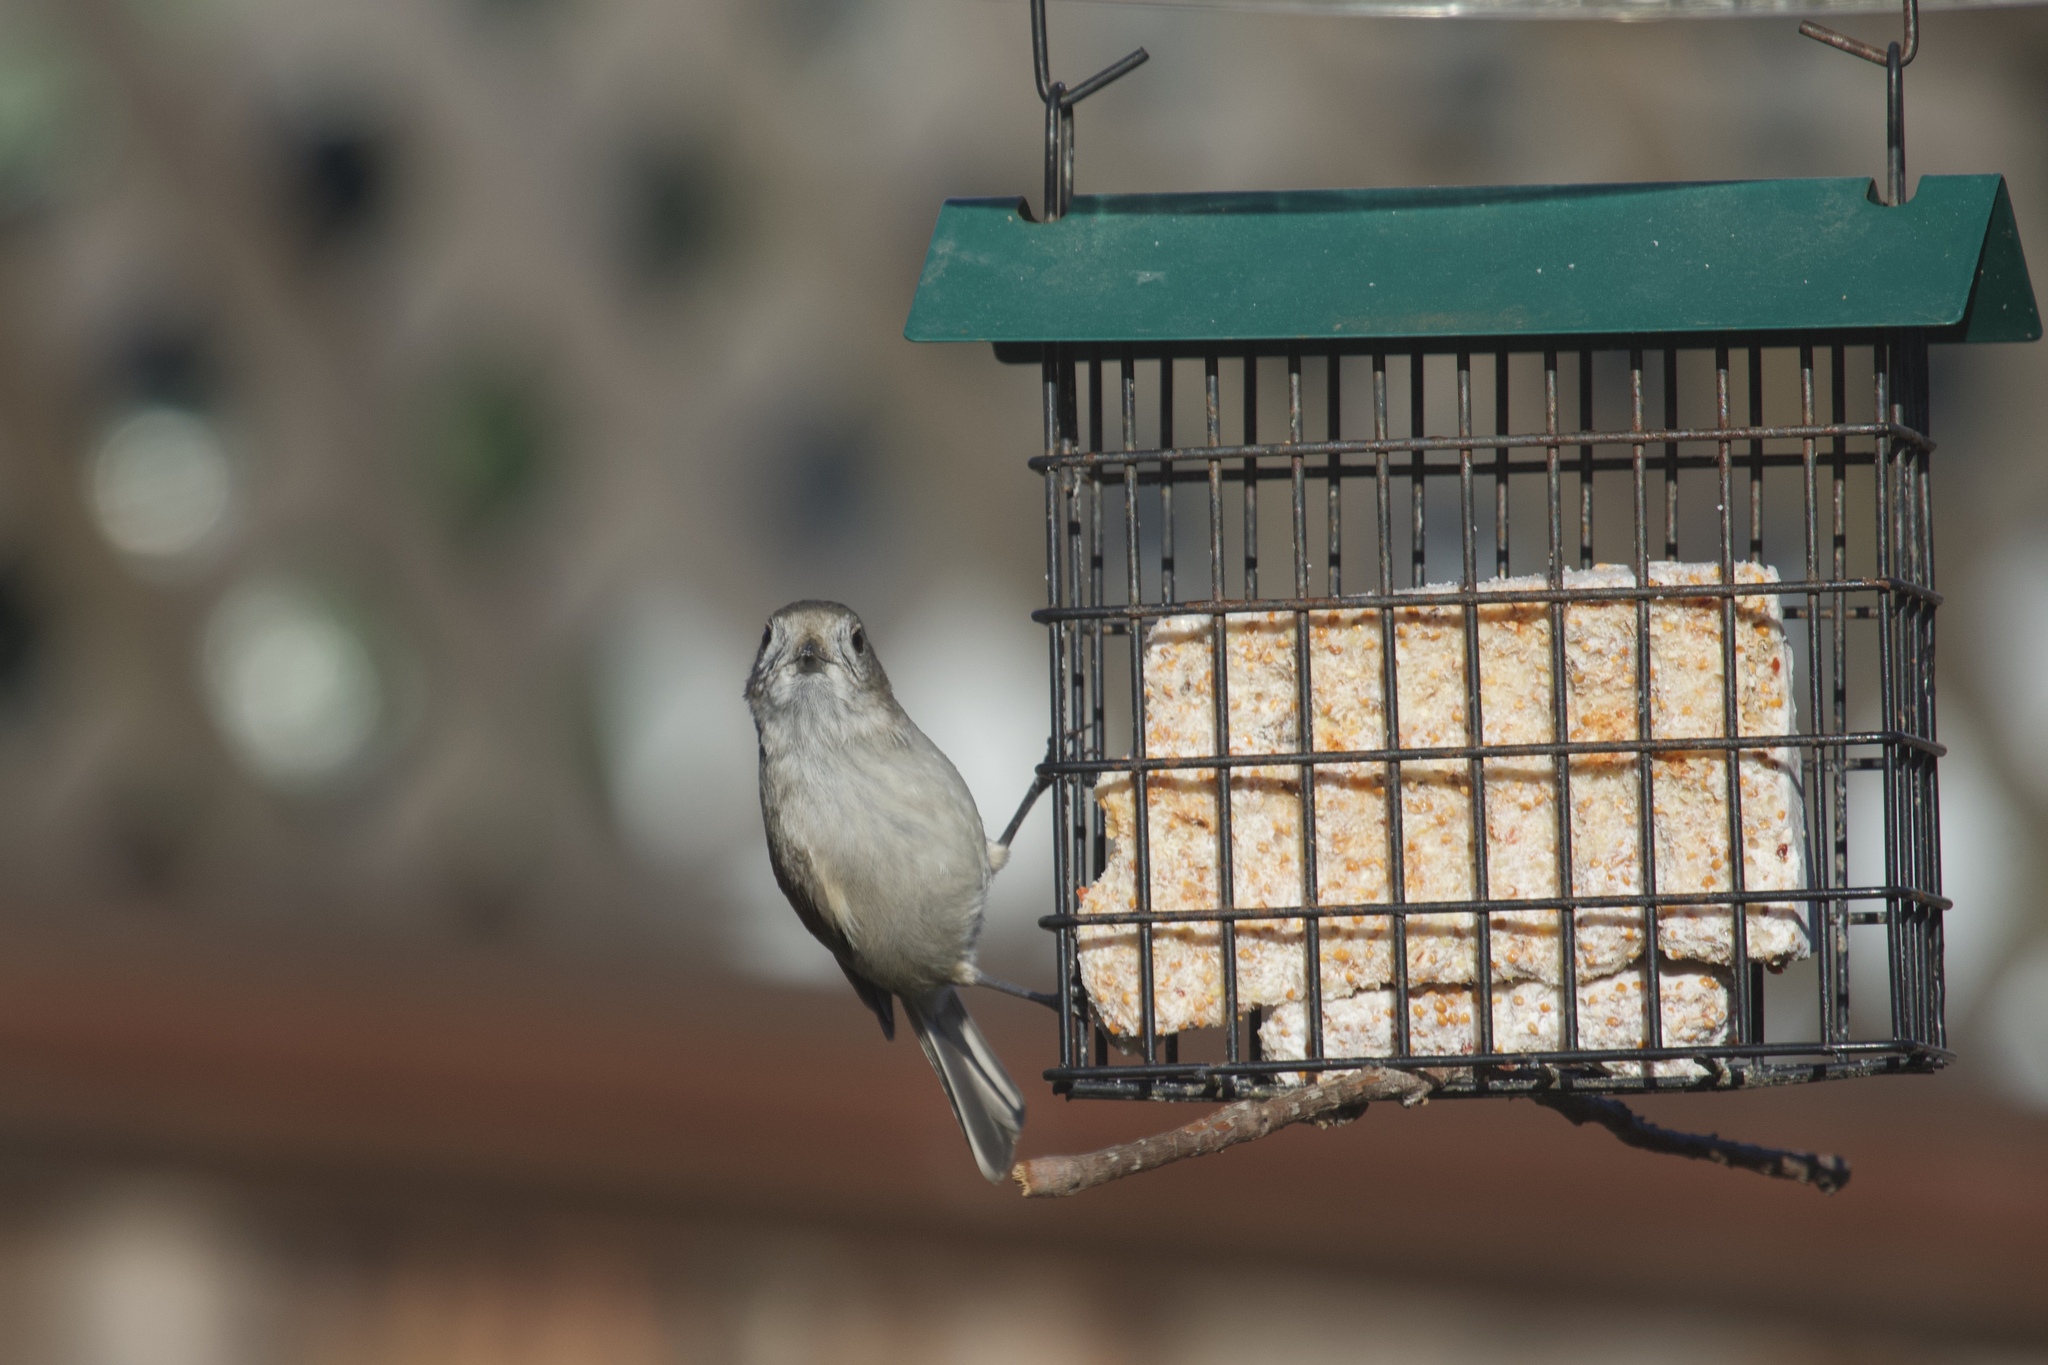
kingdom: Animalia
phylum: Chordata
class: Aves
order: Passeriformes
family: Paridae
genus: Baeolophus
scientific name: Baeolophus inornatus
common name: Oak titmouse
